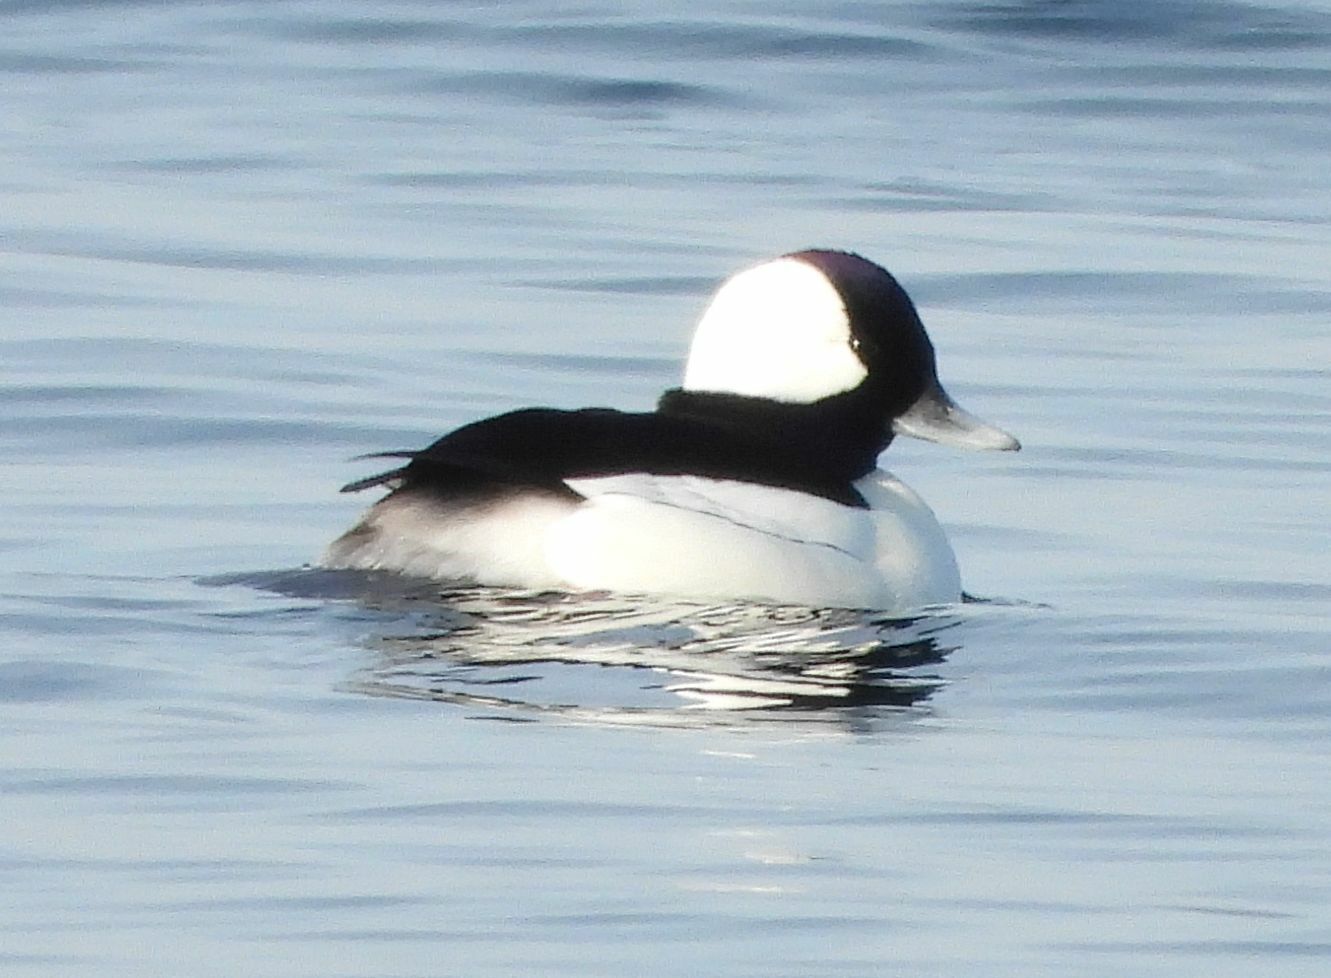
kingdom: Animalia
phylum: Chordata
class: Aves
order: Anseriformes
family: Anatidae
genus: Bucephala
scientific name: Bucephala albeola
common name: Bufflehead
